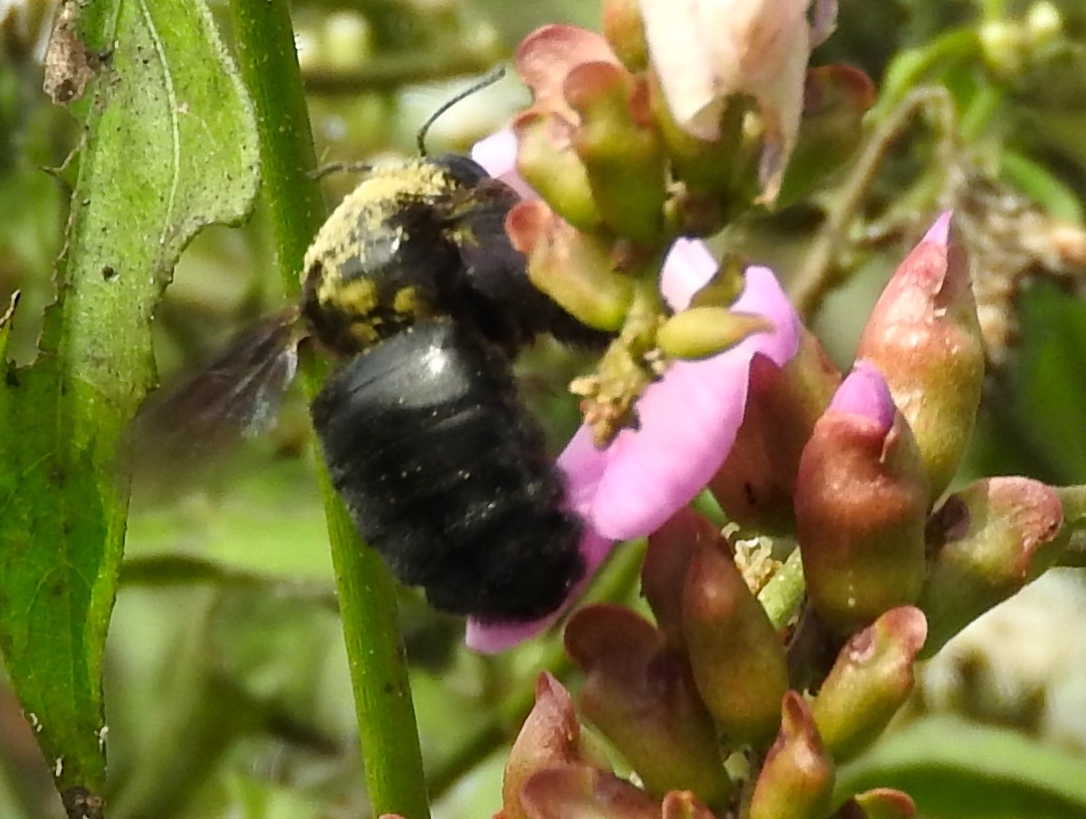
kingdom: Animalia
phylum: Arthropoda
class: Insecta
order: Hymenoptera
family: Apidae
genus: Xylocopa
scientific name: Xylocopa
